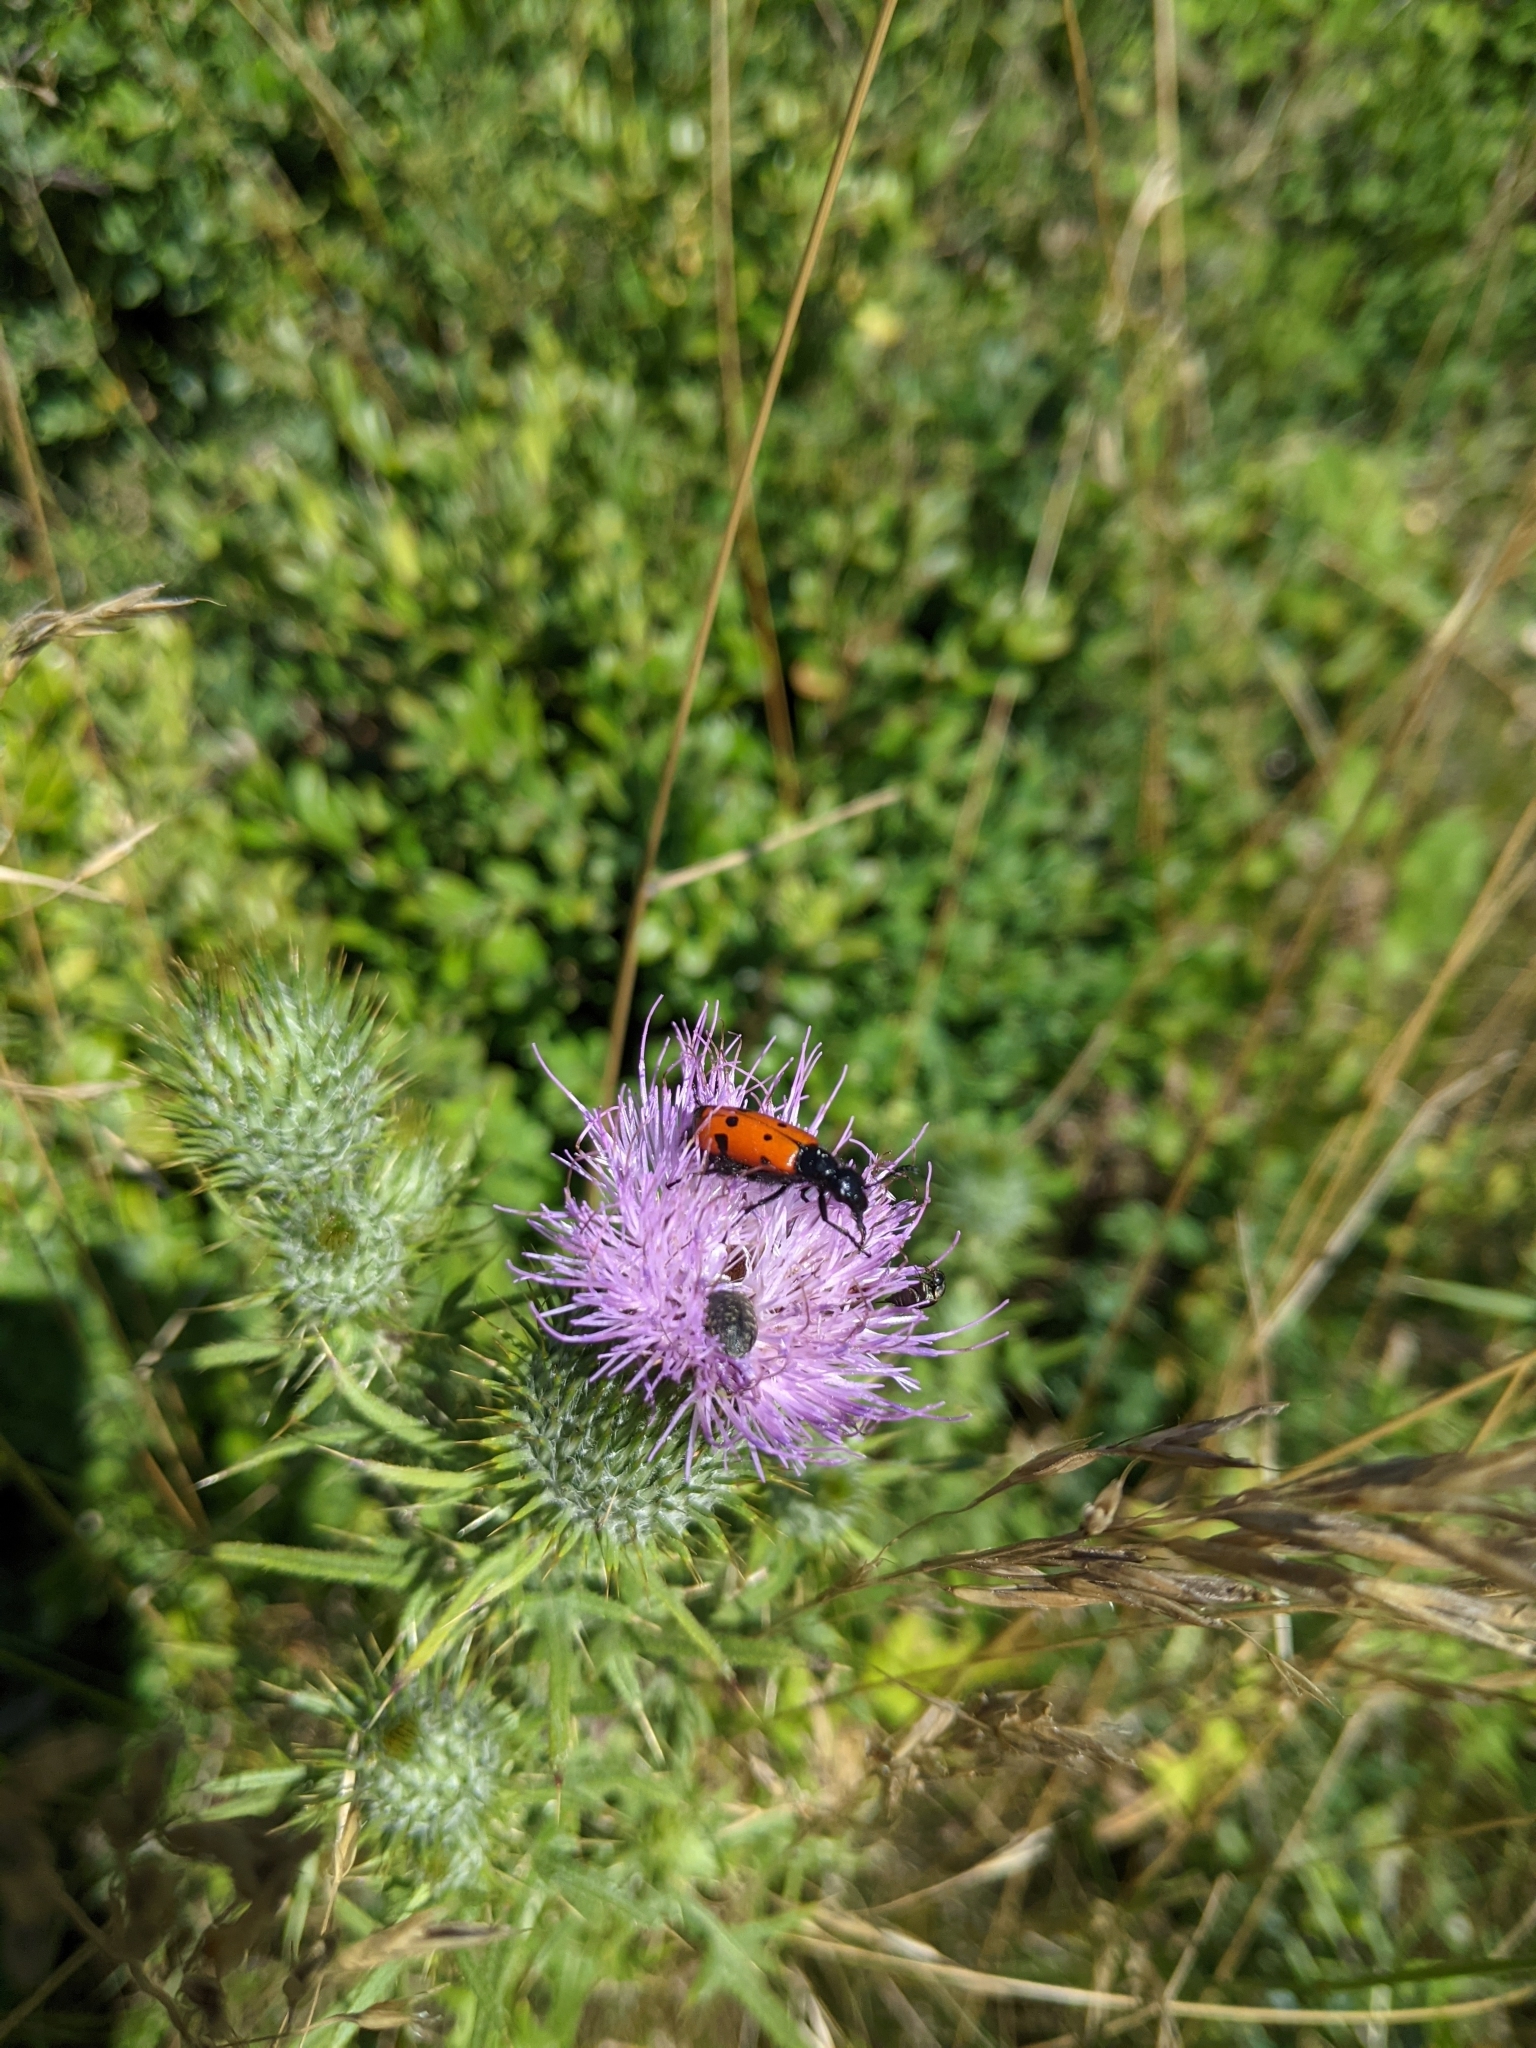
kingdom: Animalia
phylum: Arthropoda
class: Insecta
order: Coleoptera
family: Meloidae
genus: Mylabris
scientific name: Mylabris quadripunctata
